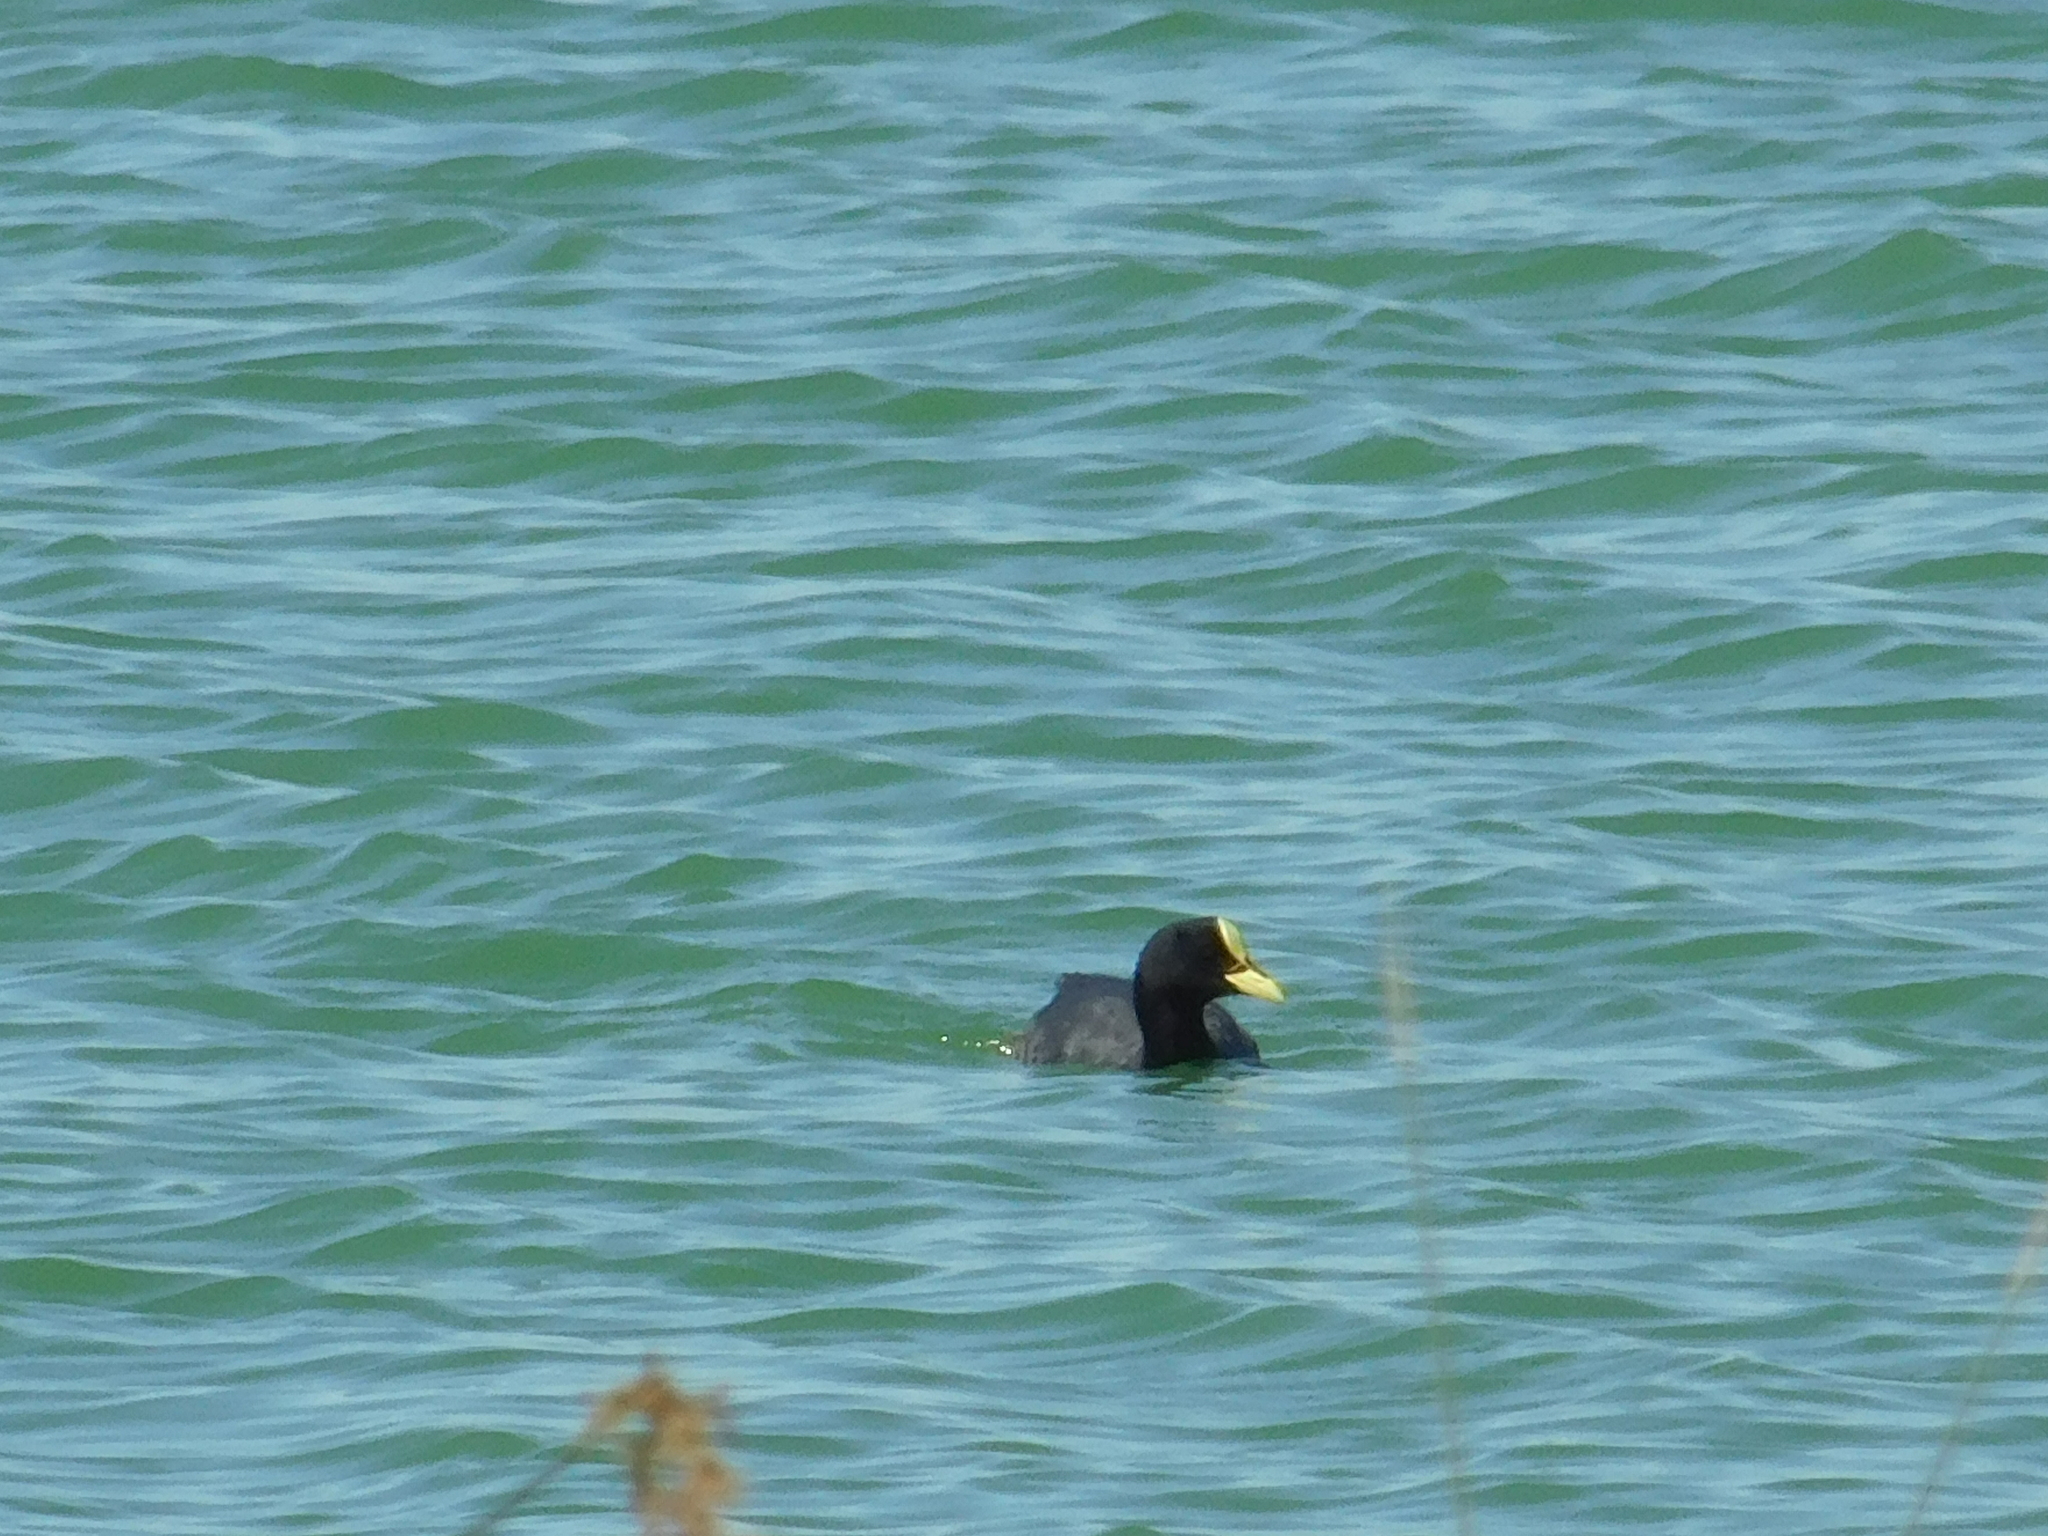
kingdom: Animalia
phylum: Chordata
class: Aves
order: Gruiformes
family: Rallidae
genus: Fulica
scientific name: Fulica armillata
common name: Red-gartered coot
